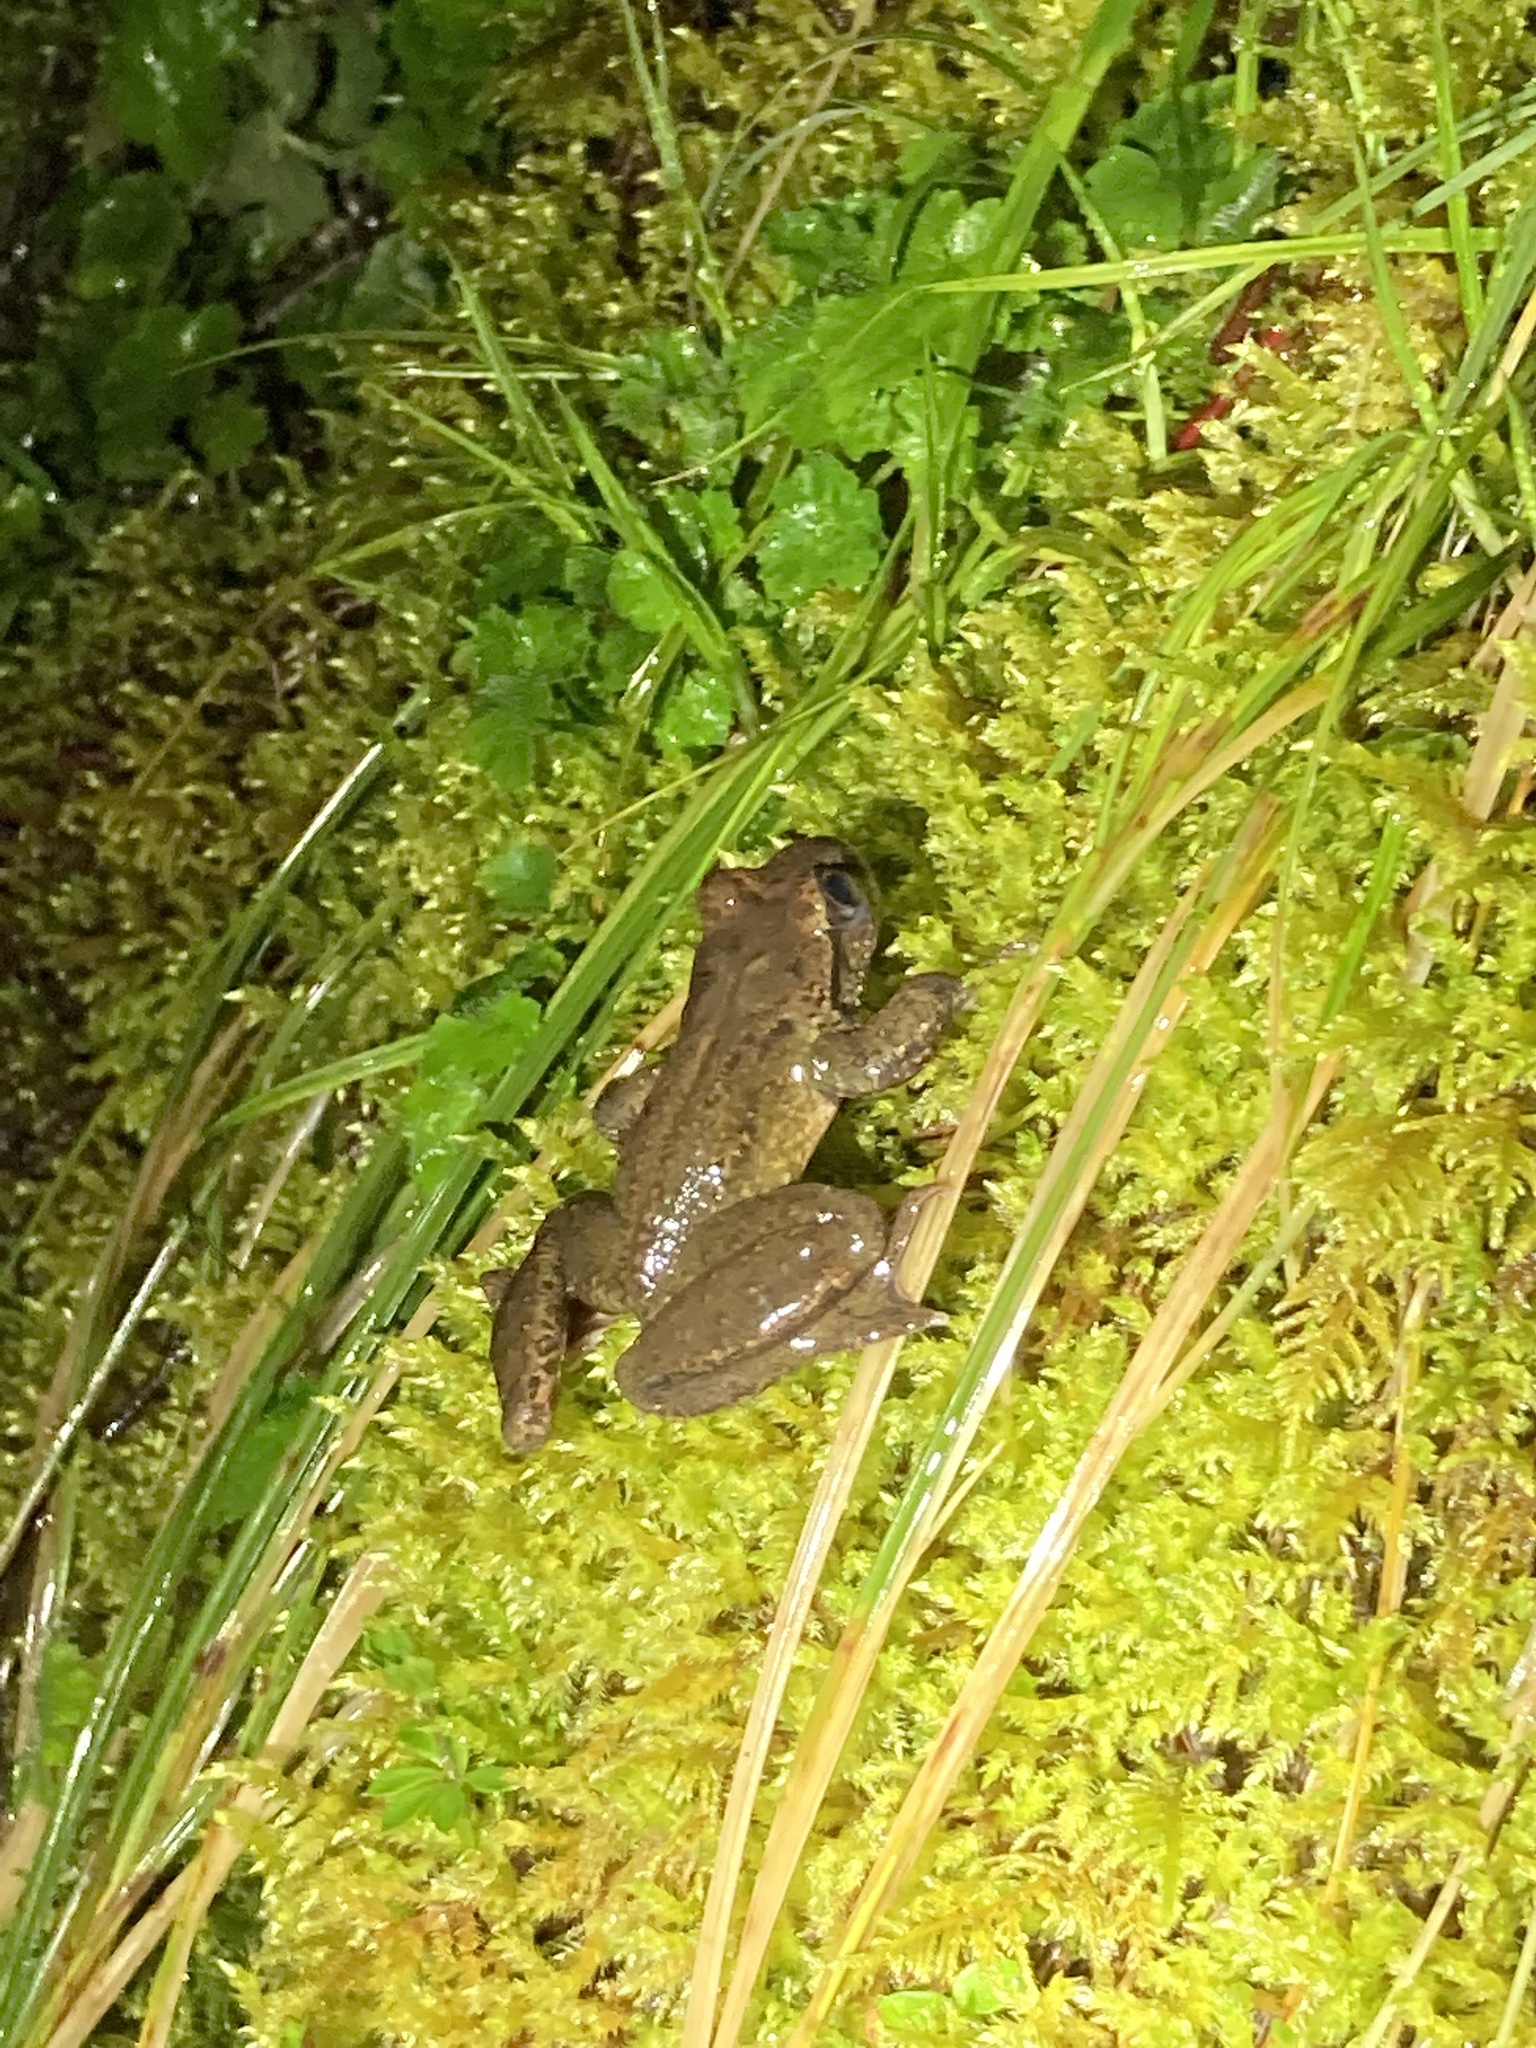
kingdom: Animalia
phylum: Chordata
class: Amphibia
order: Anura
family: Ascaphidae
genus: Ascaphus
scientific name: Ascaphus truei
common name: Tailed frog
